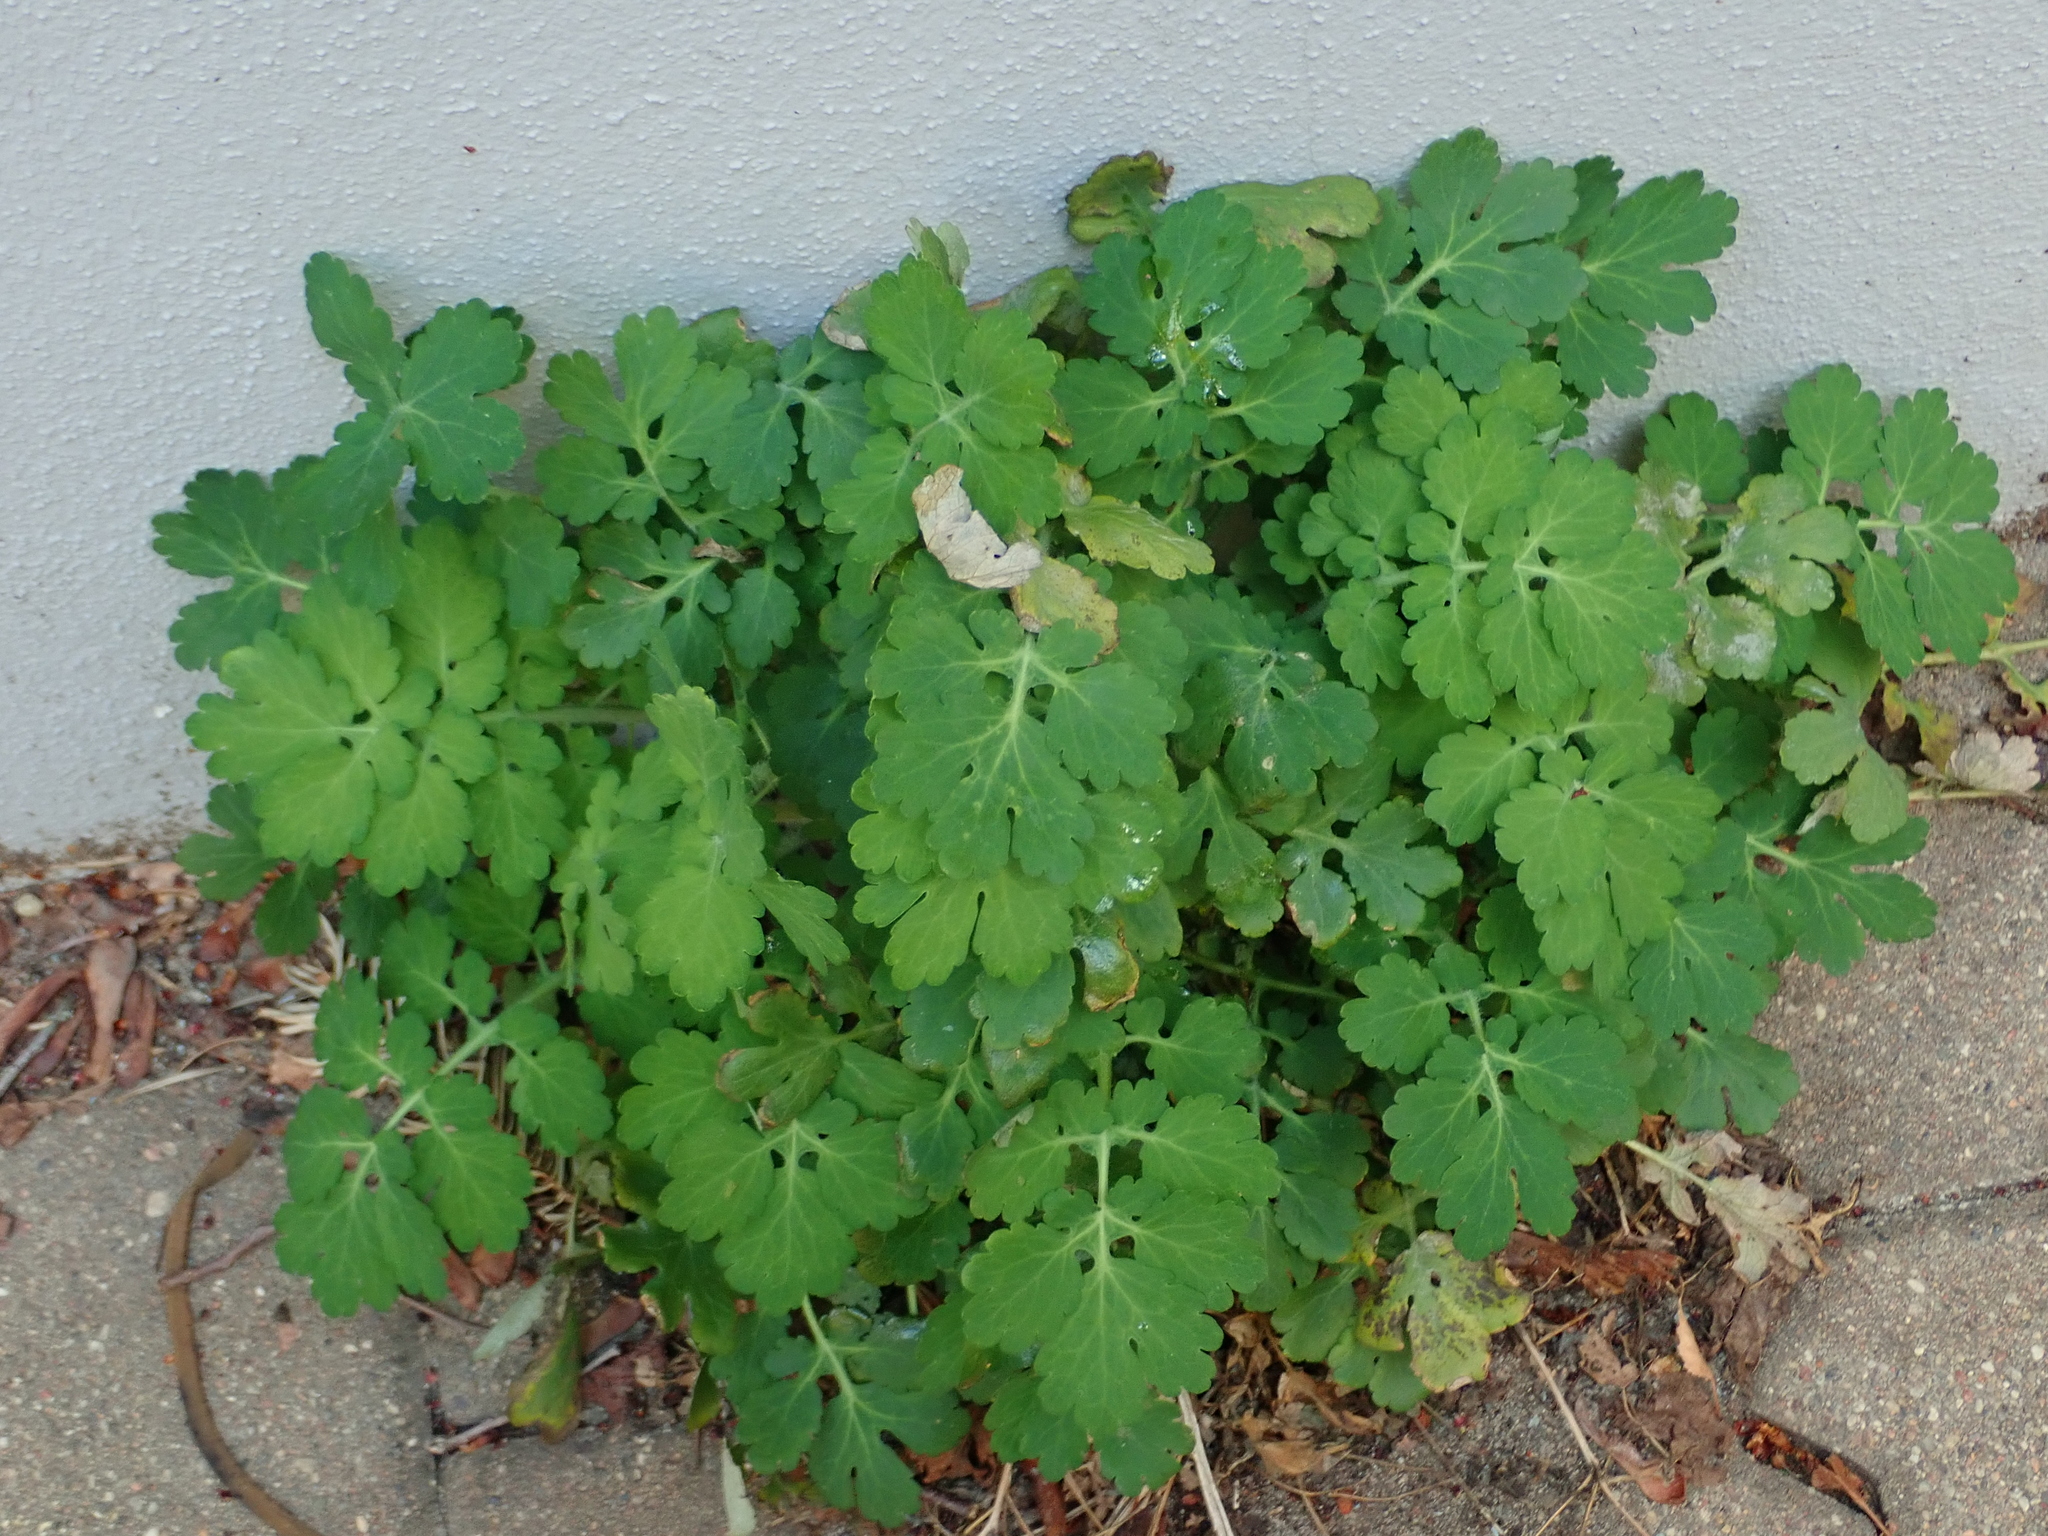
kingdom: Plantae
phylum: Tracheophyta
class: Magnoliopsida
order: Ranunculales
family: Papaveraceae
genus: Chelidonium
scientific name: Chelidonium majus
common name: Greater celandine
